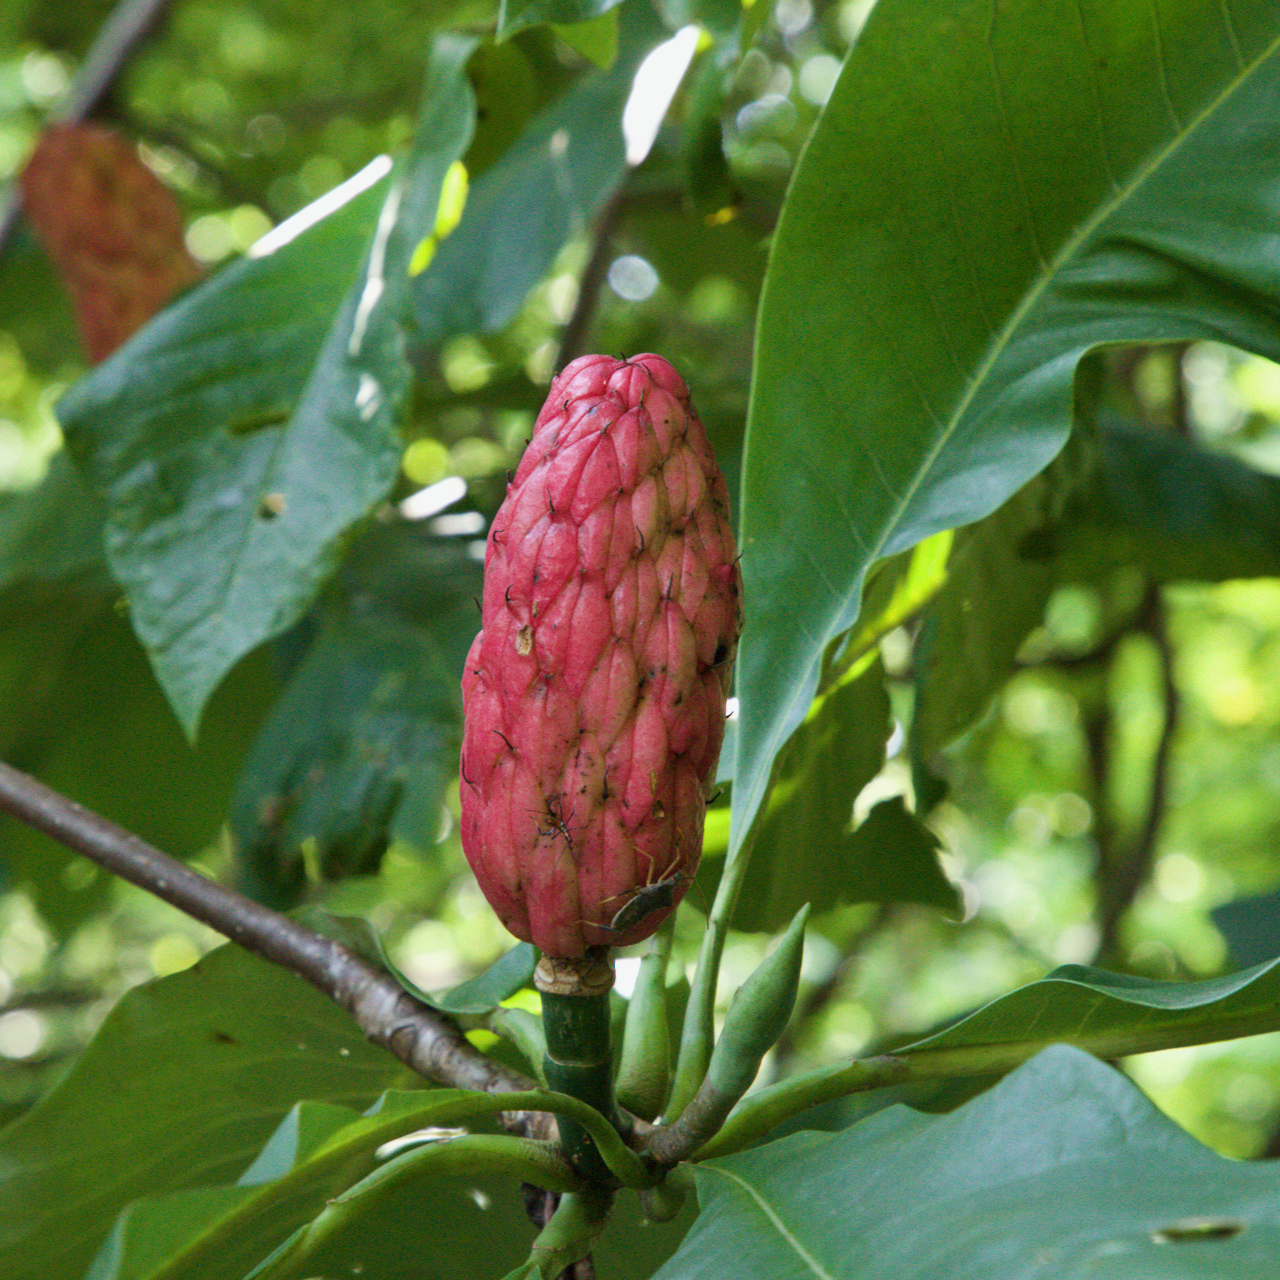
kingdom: Plantae
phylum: Tracheophyta
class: Magnoliopsida
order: Magnoliales
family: Magnoliaceae
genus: Magnolia
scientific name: Magnolia tripetala
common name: Umbrella magnolia
